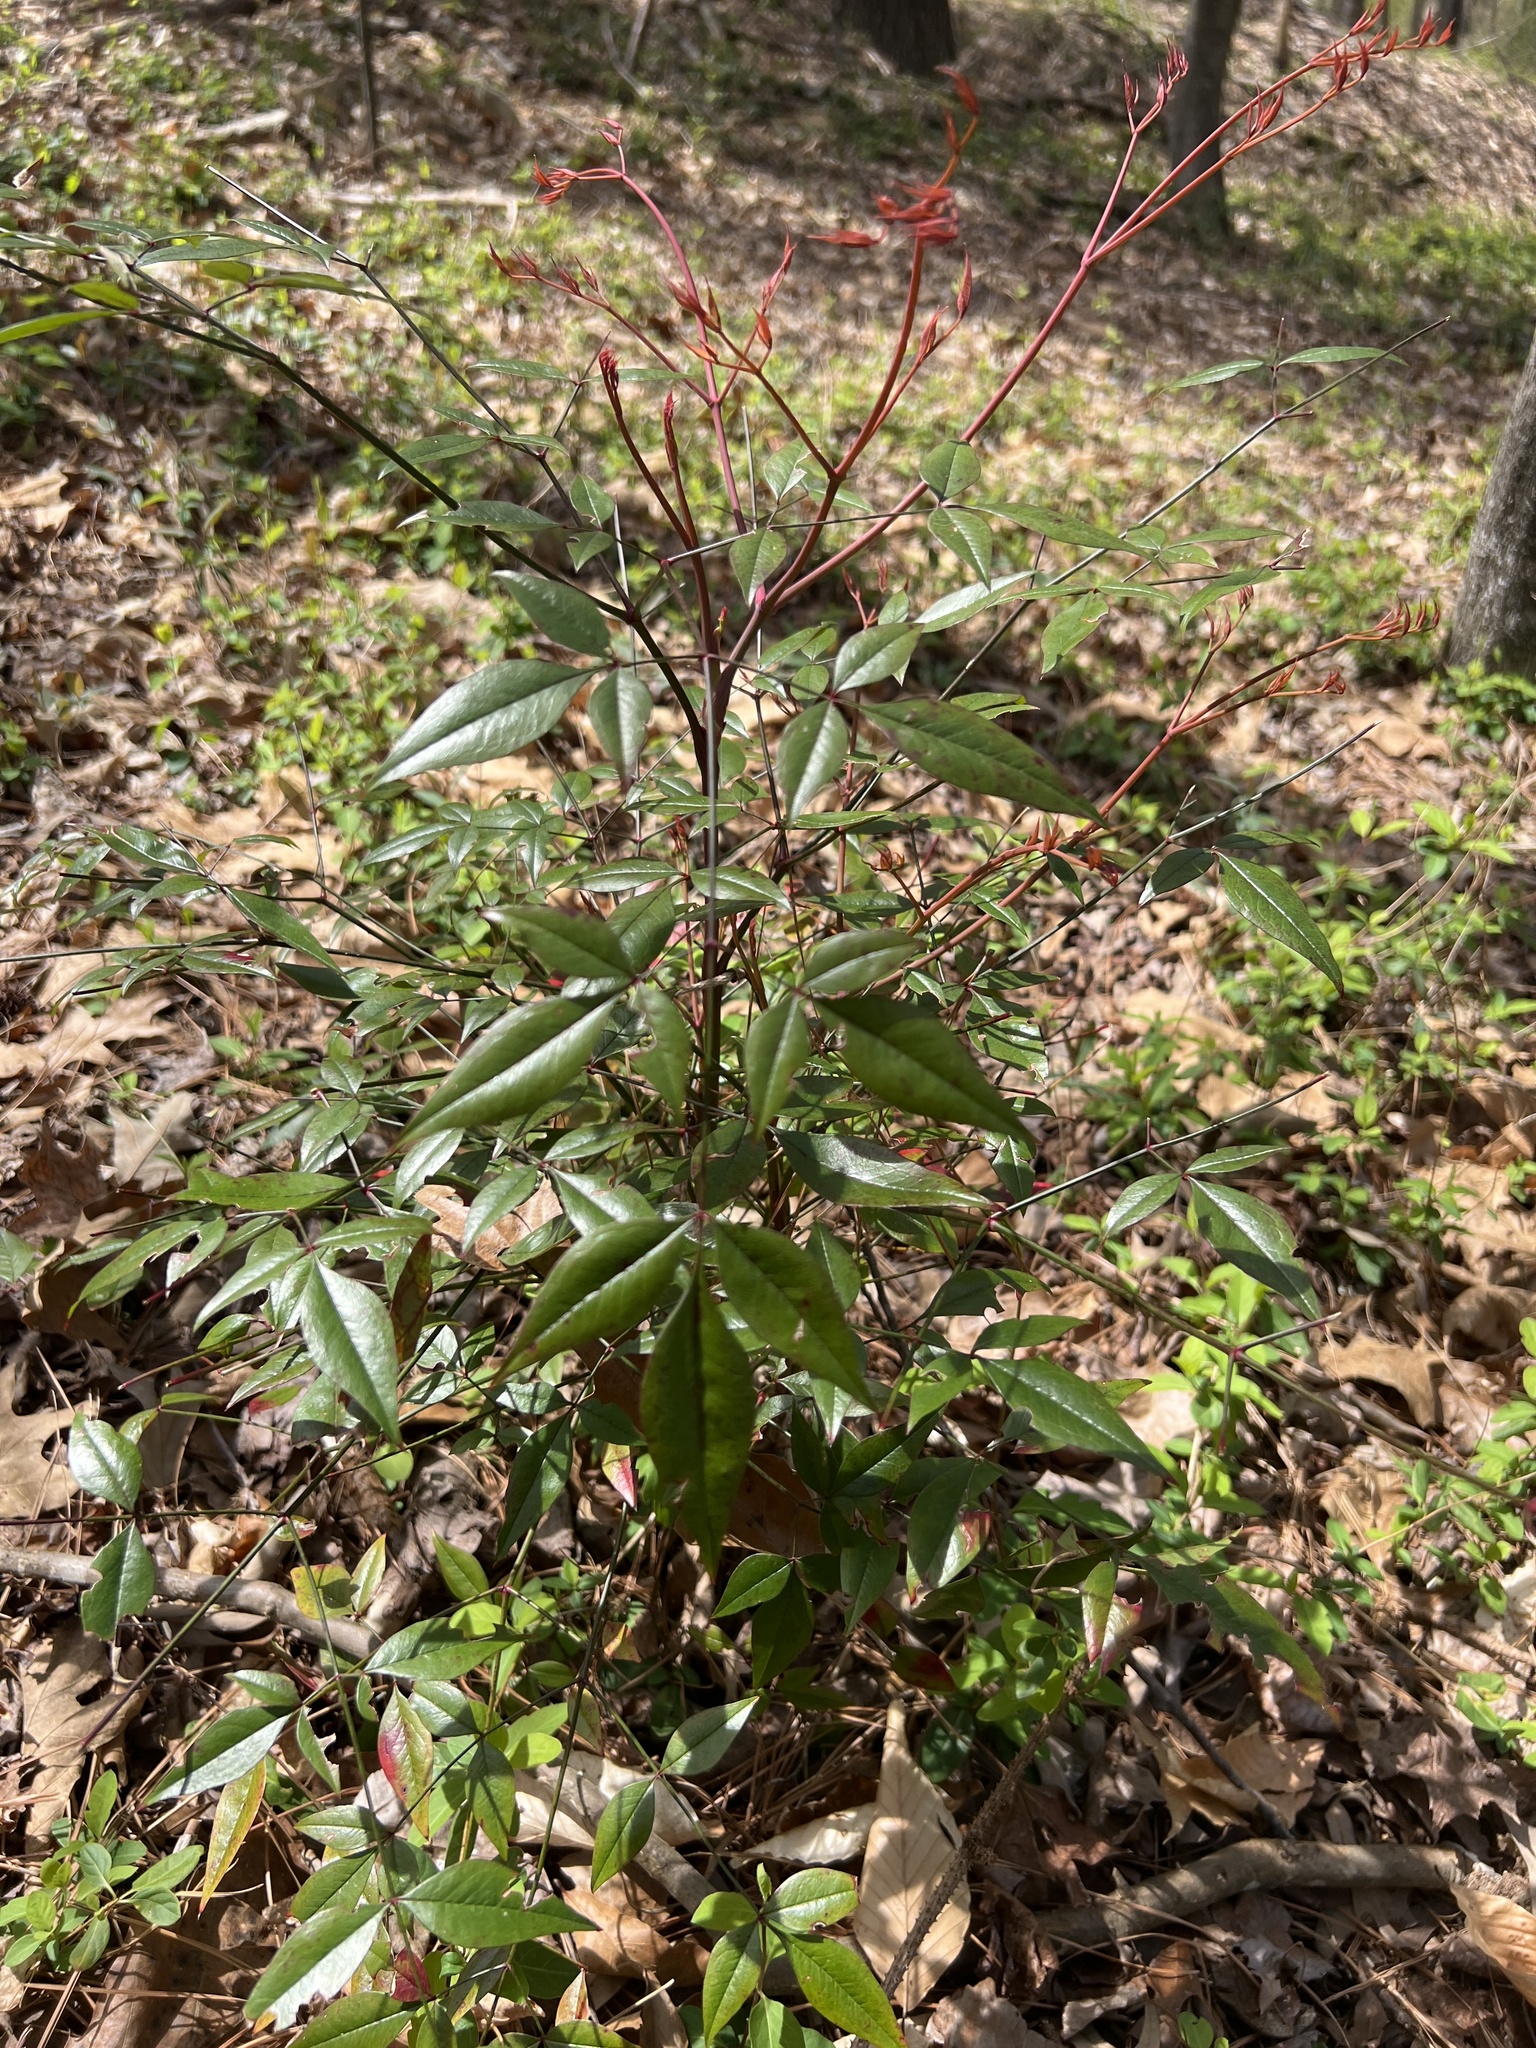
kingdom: Plantae
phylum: Tracheophyta
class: Magnoliopsida
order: Ranunculales
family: Berberidaceae
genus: Nandina
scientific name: Nandina domestica
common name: Sacred bamboo
